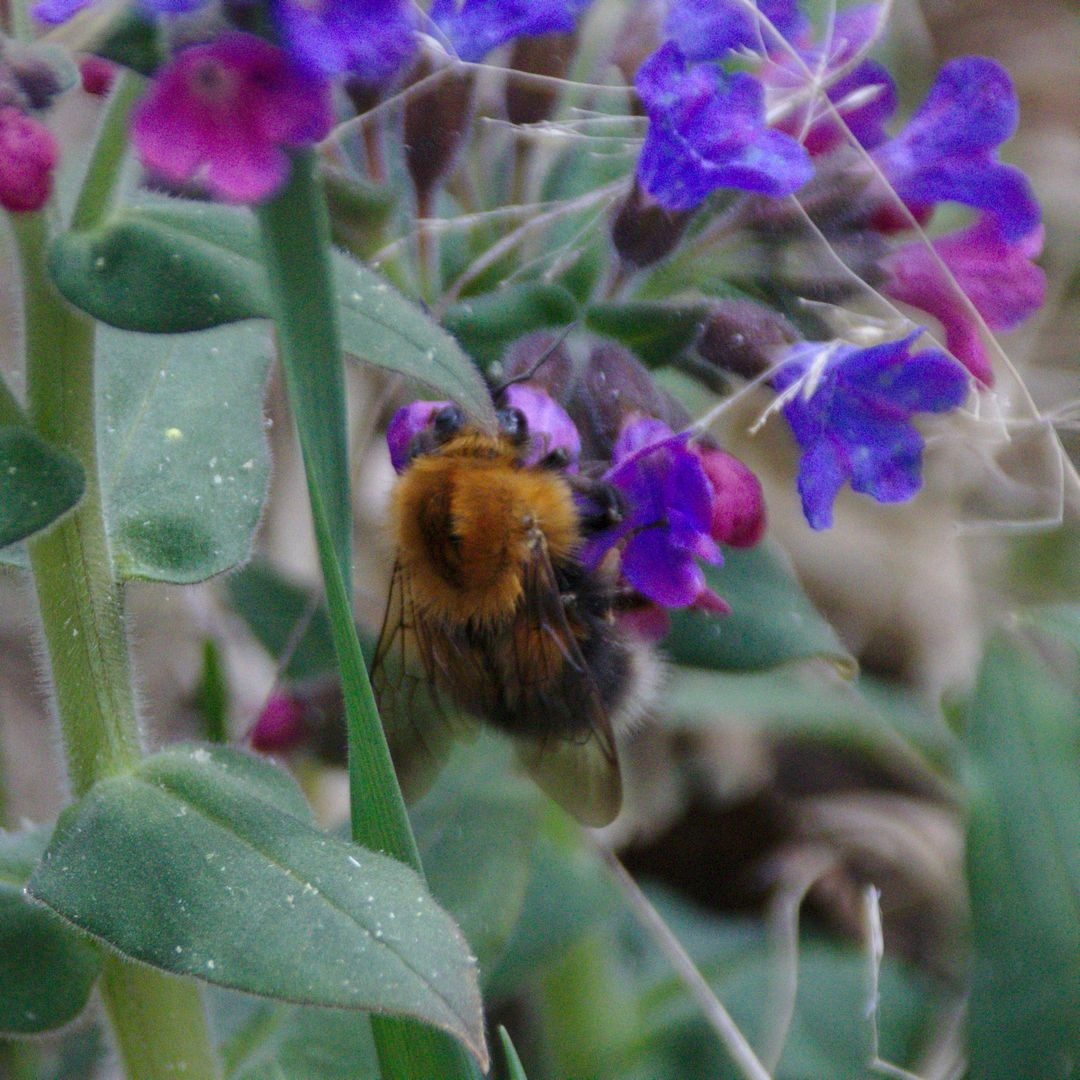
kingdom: Animalia
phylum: Arthropoda
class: Insecta
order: Hymenoptera
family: Apidae
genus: Bombus
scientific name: Bombus hypnorum
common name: New garden bumblebee
